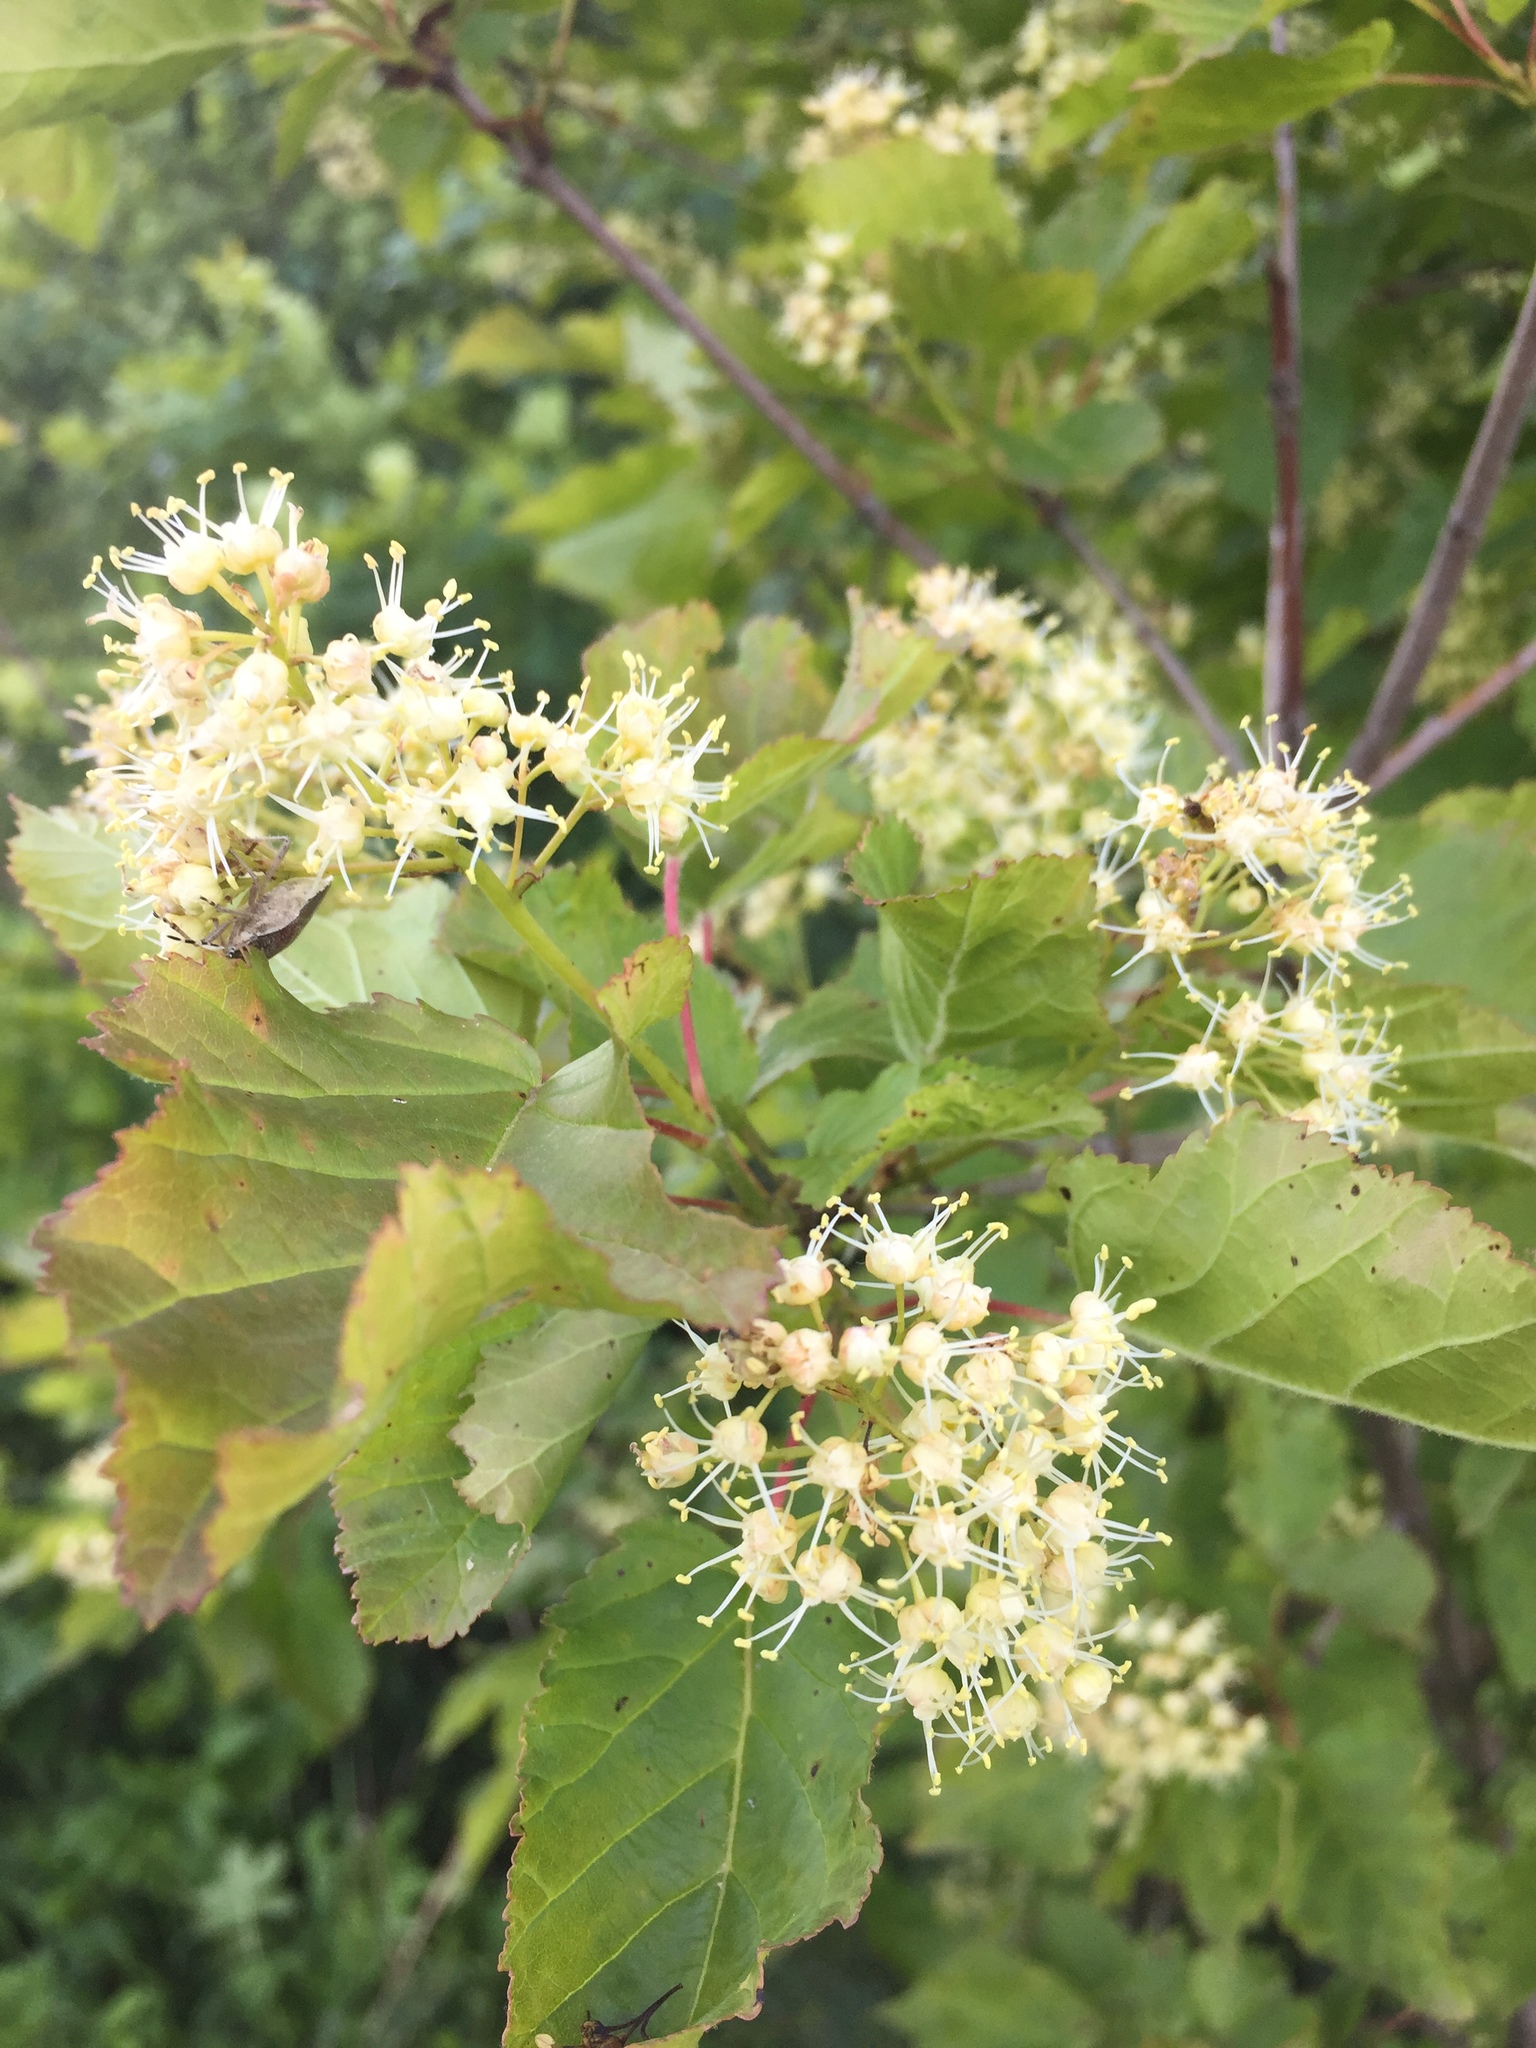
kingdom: Plantae
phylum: Tracheophyta
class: Magnoliopsida
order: Sapindales
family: Sapindaceae
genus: Acer
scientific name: Acer tataricum
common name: Tartar maple
